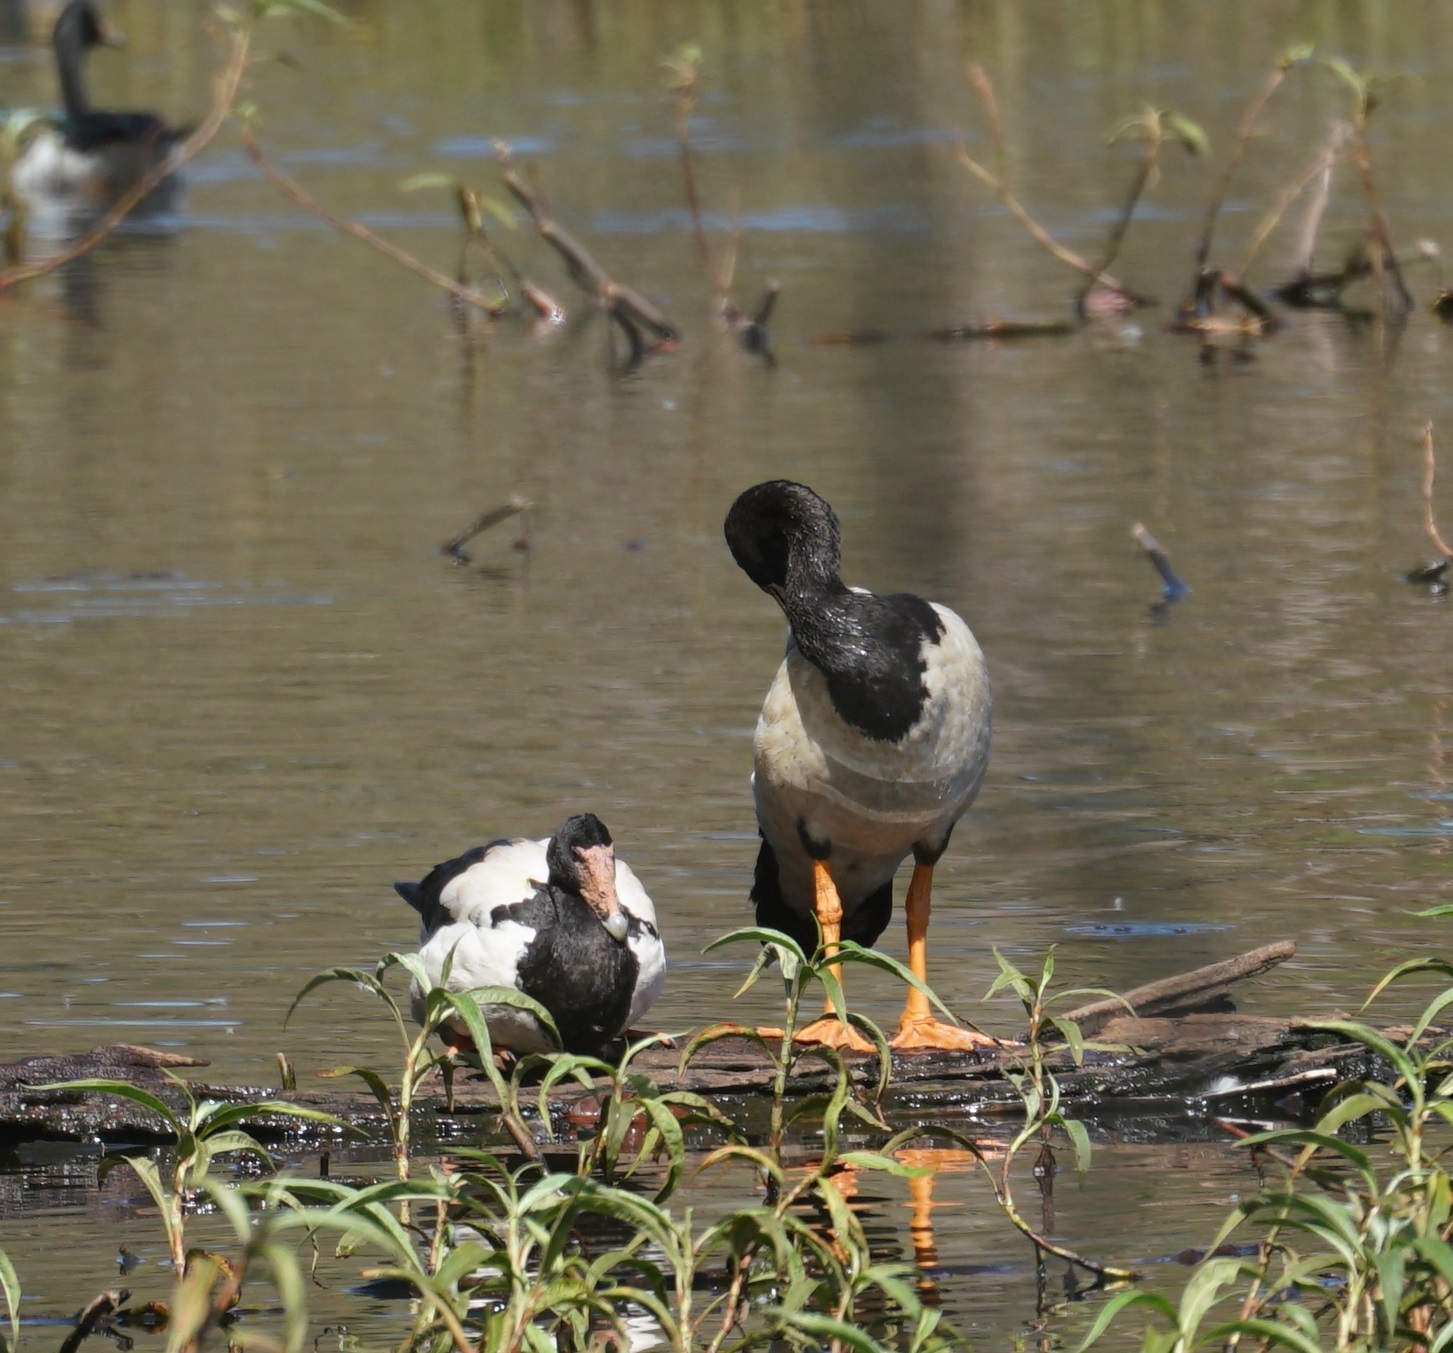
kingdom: Animalia
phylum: Chordata
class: Aves
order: Anseriformes
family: Anseranatidae
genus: Anseranas
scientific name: Anseranas semipalmata
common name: Magpie goose
